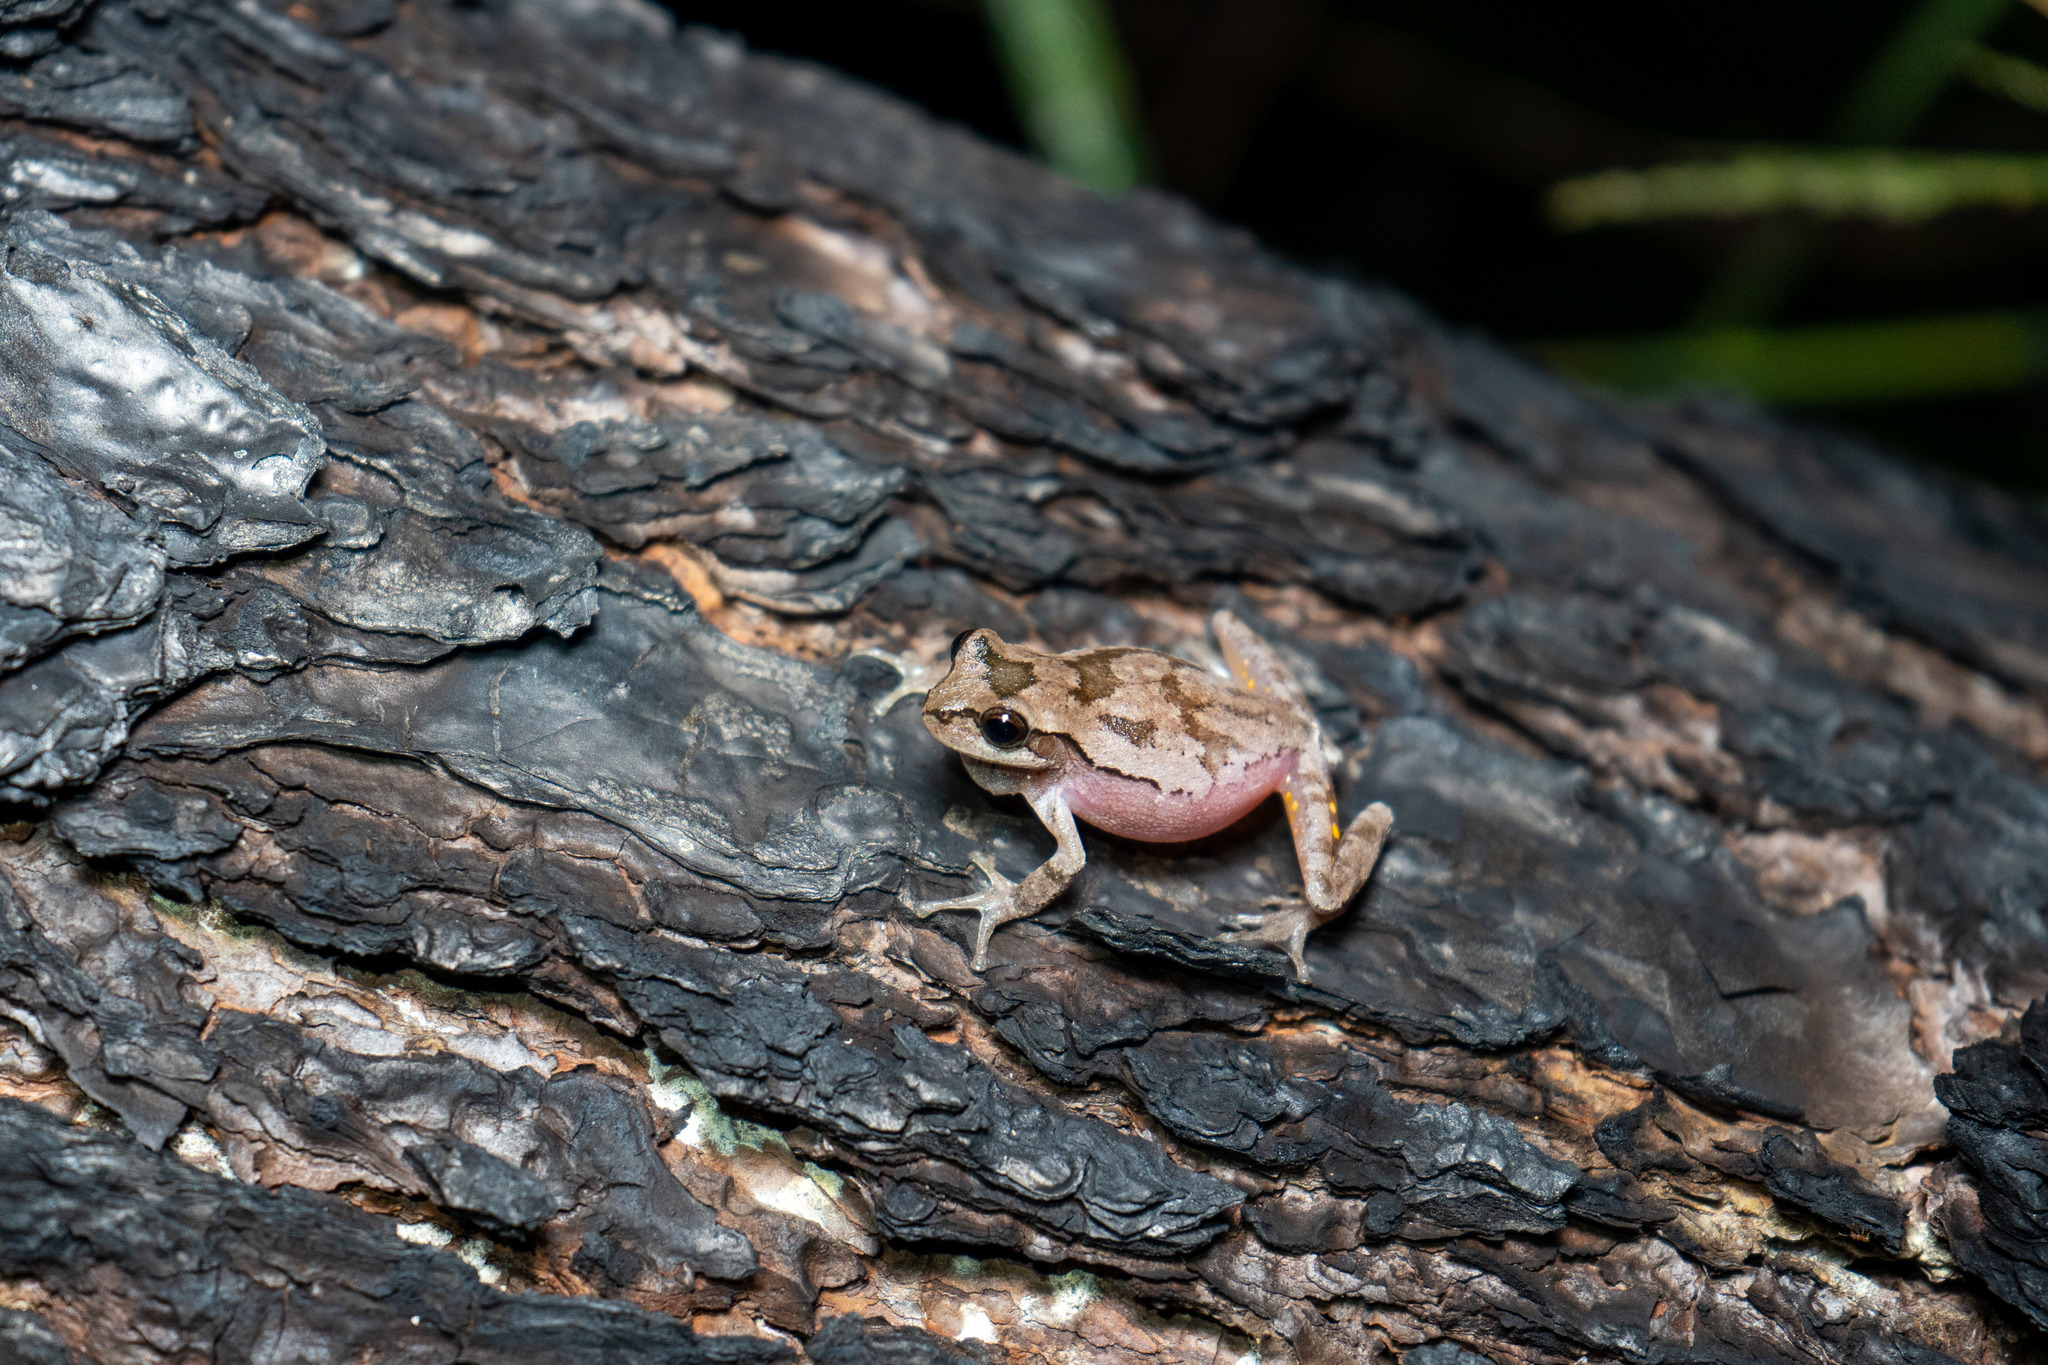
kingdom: Animalia
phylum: Chordata
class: Amphibia
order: Anura
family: Hylidae
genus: Hyla
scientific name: Hyla femoralis
